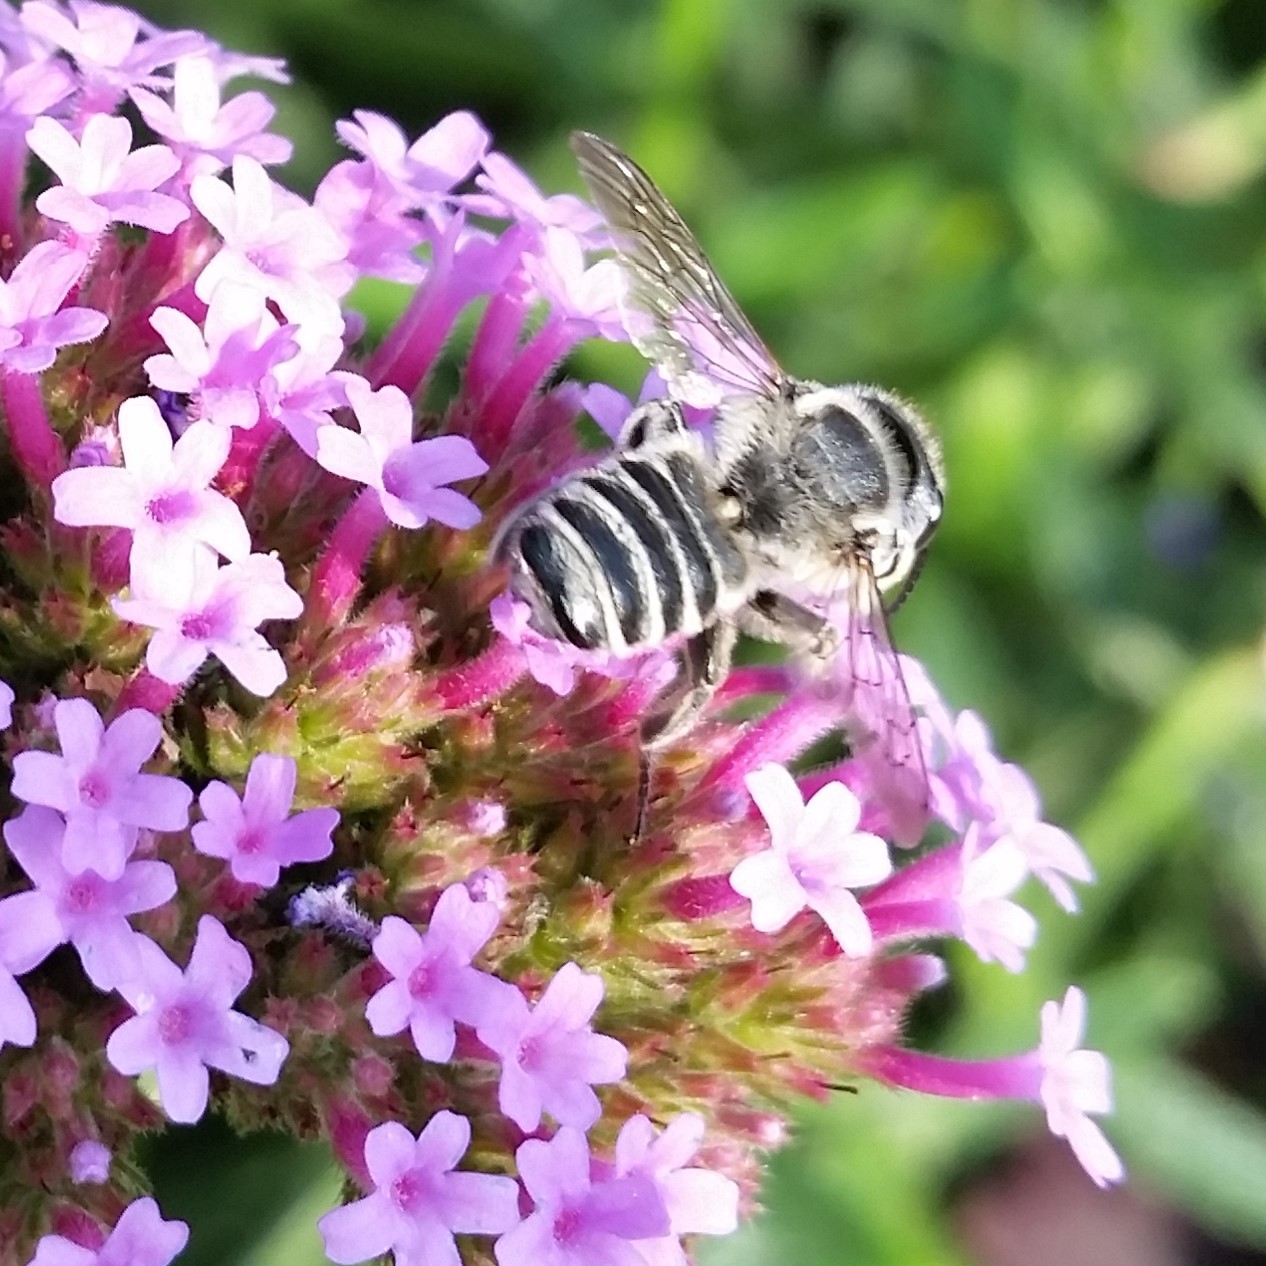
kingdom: Animalia
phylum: Arthropoda
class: Insecta
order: Hymenoptera
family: Megachilidae
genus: Megachile
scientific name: Megachile texana
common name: Texas leafcutter
